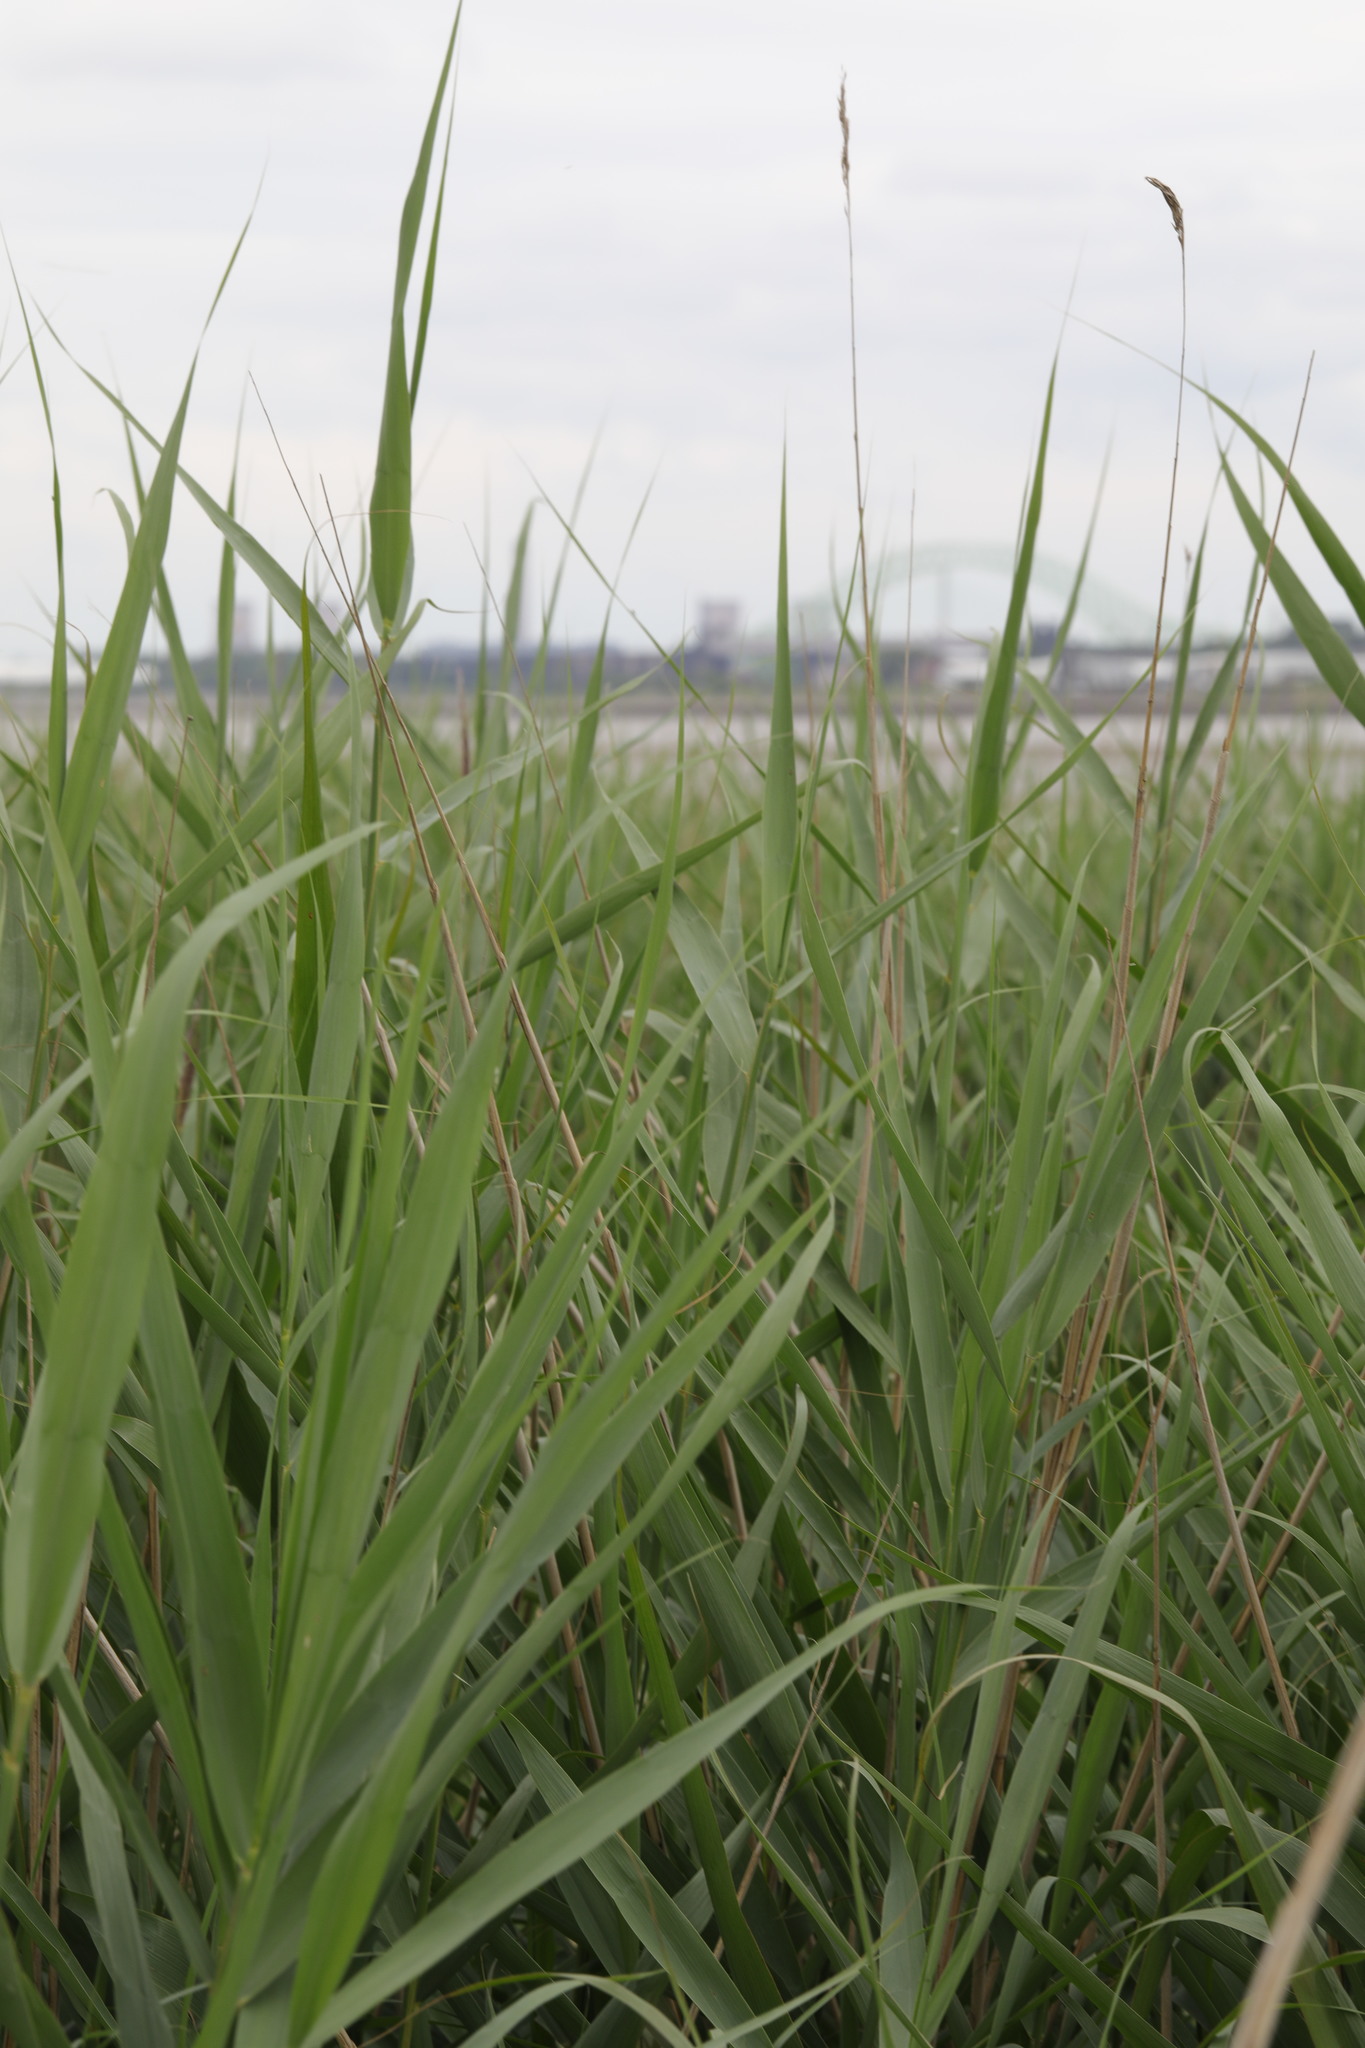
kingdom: Plantae
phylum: Tracheophyta
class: Liliopsida
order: Poales
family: Poaceae
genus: Phragmites
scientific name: Phragmites australis
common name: Common reed
